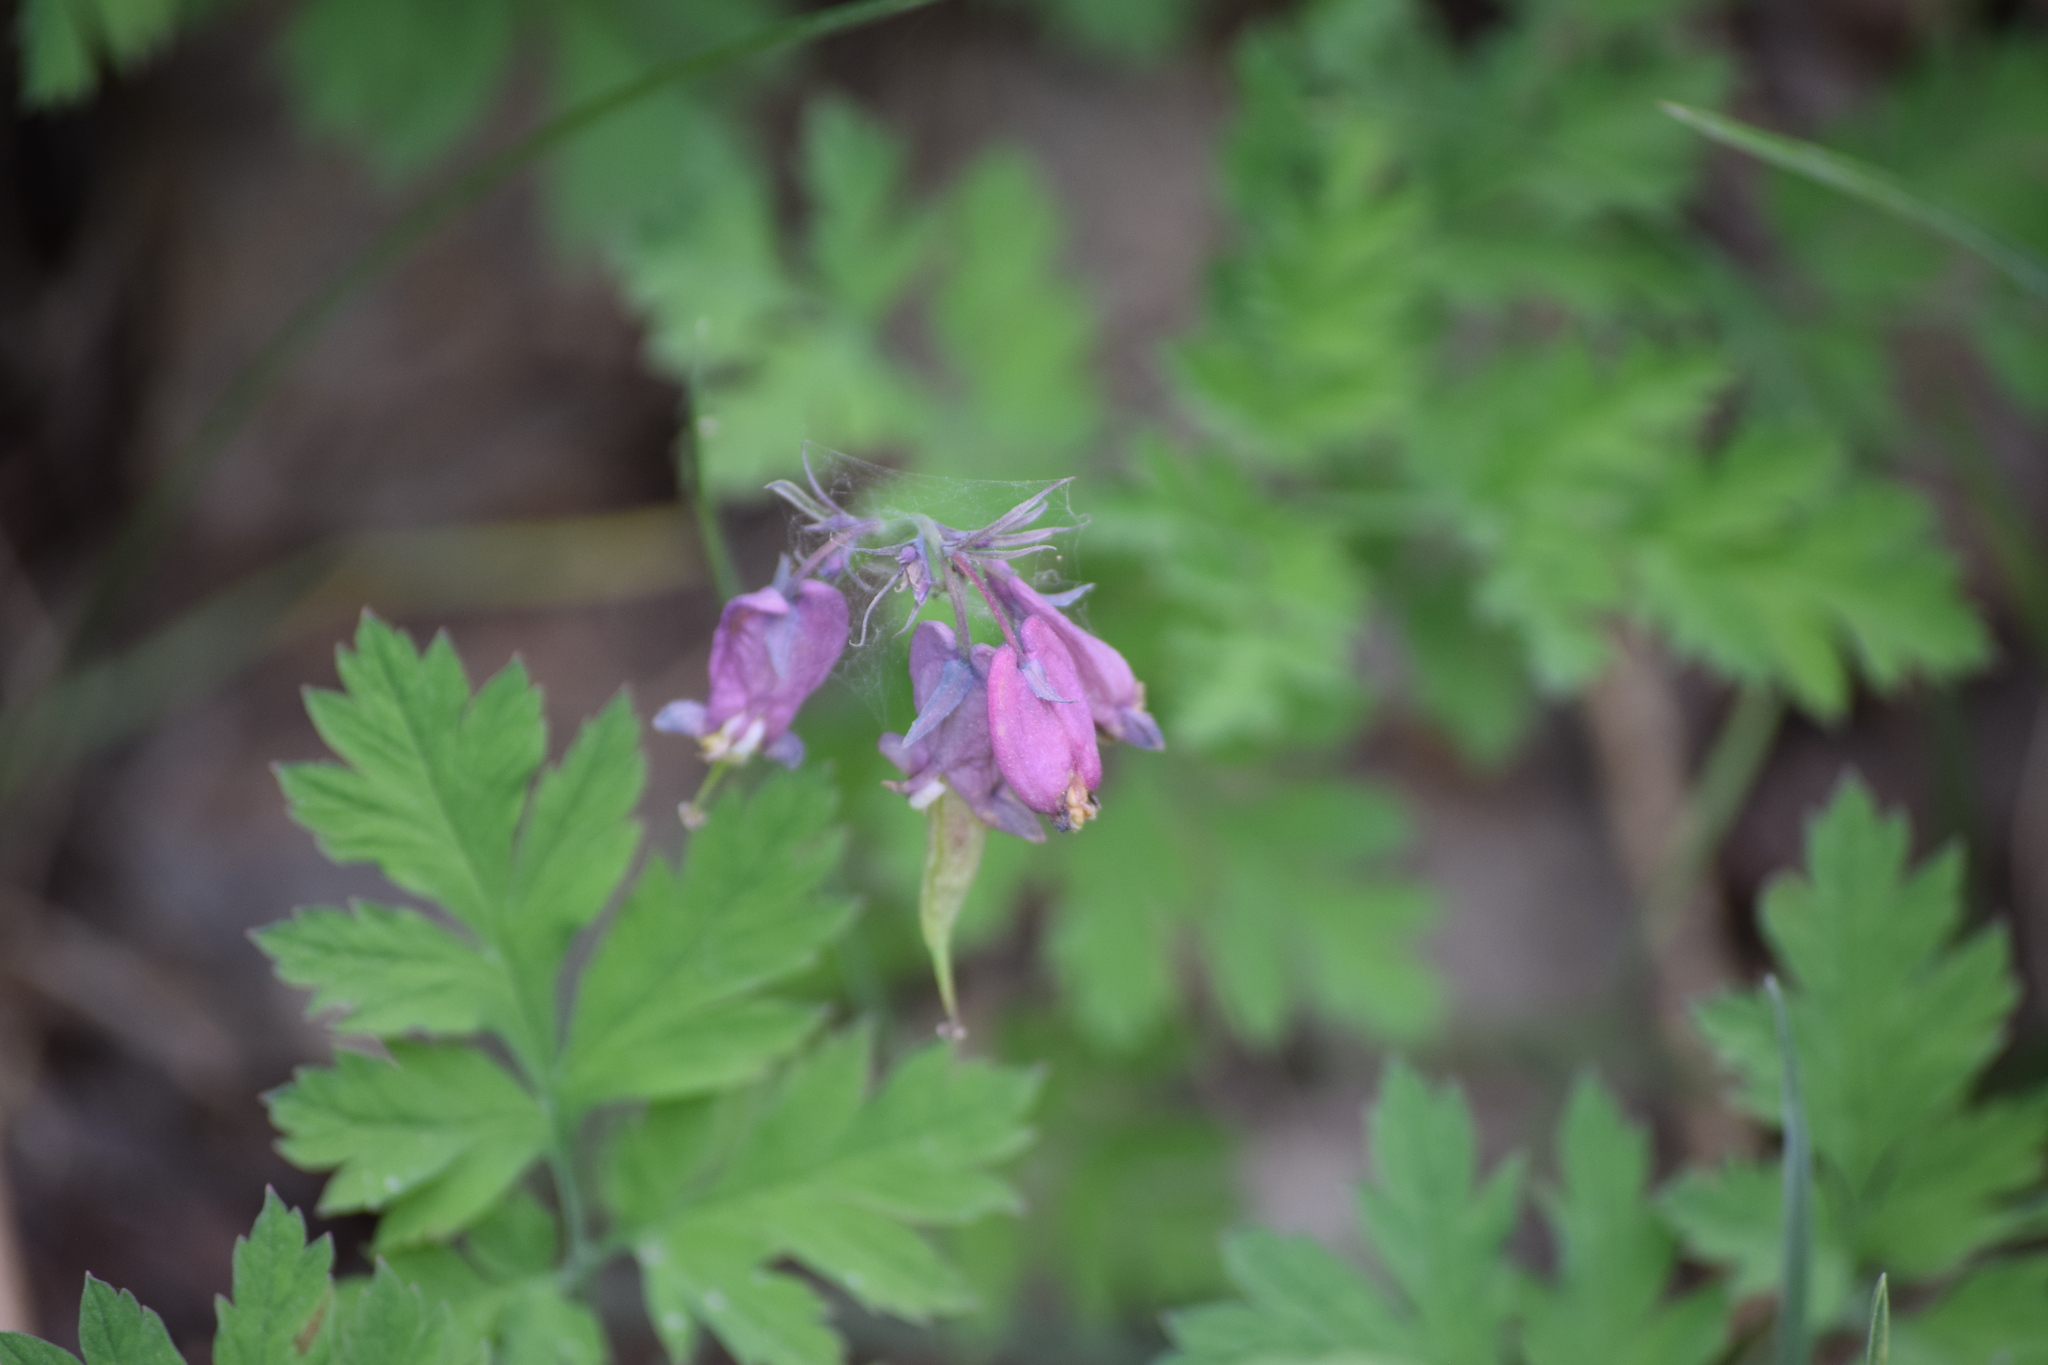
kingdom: Plantae
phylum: Tracheophyta
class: Magnoliopsida
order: Ranunculales
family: Papaveraceae
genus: Dicentra
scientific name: Dicentra formosa
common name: Bleeding-heart
